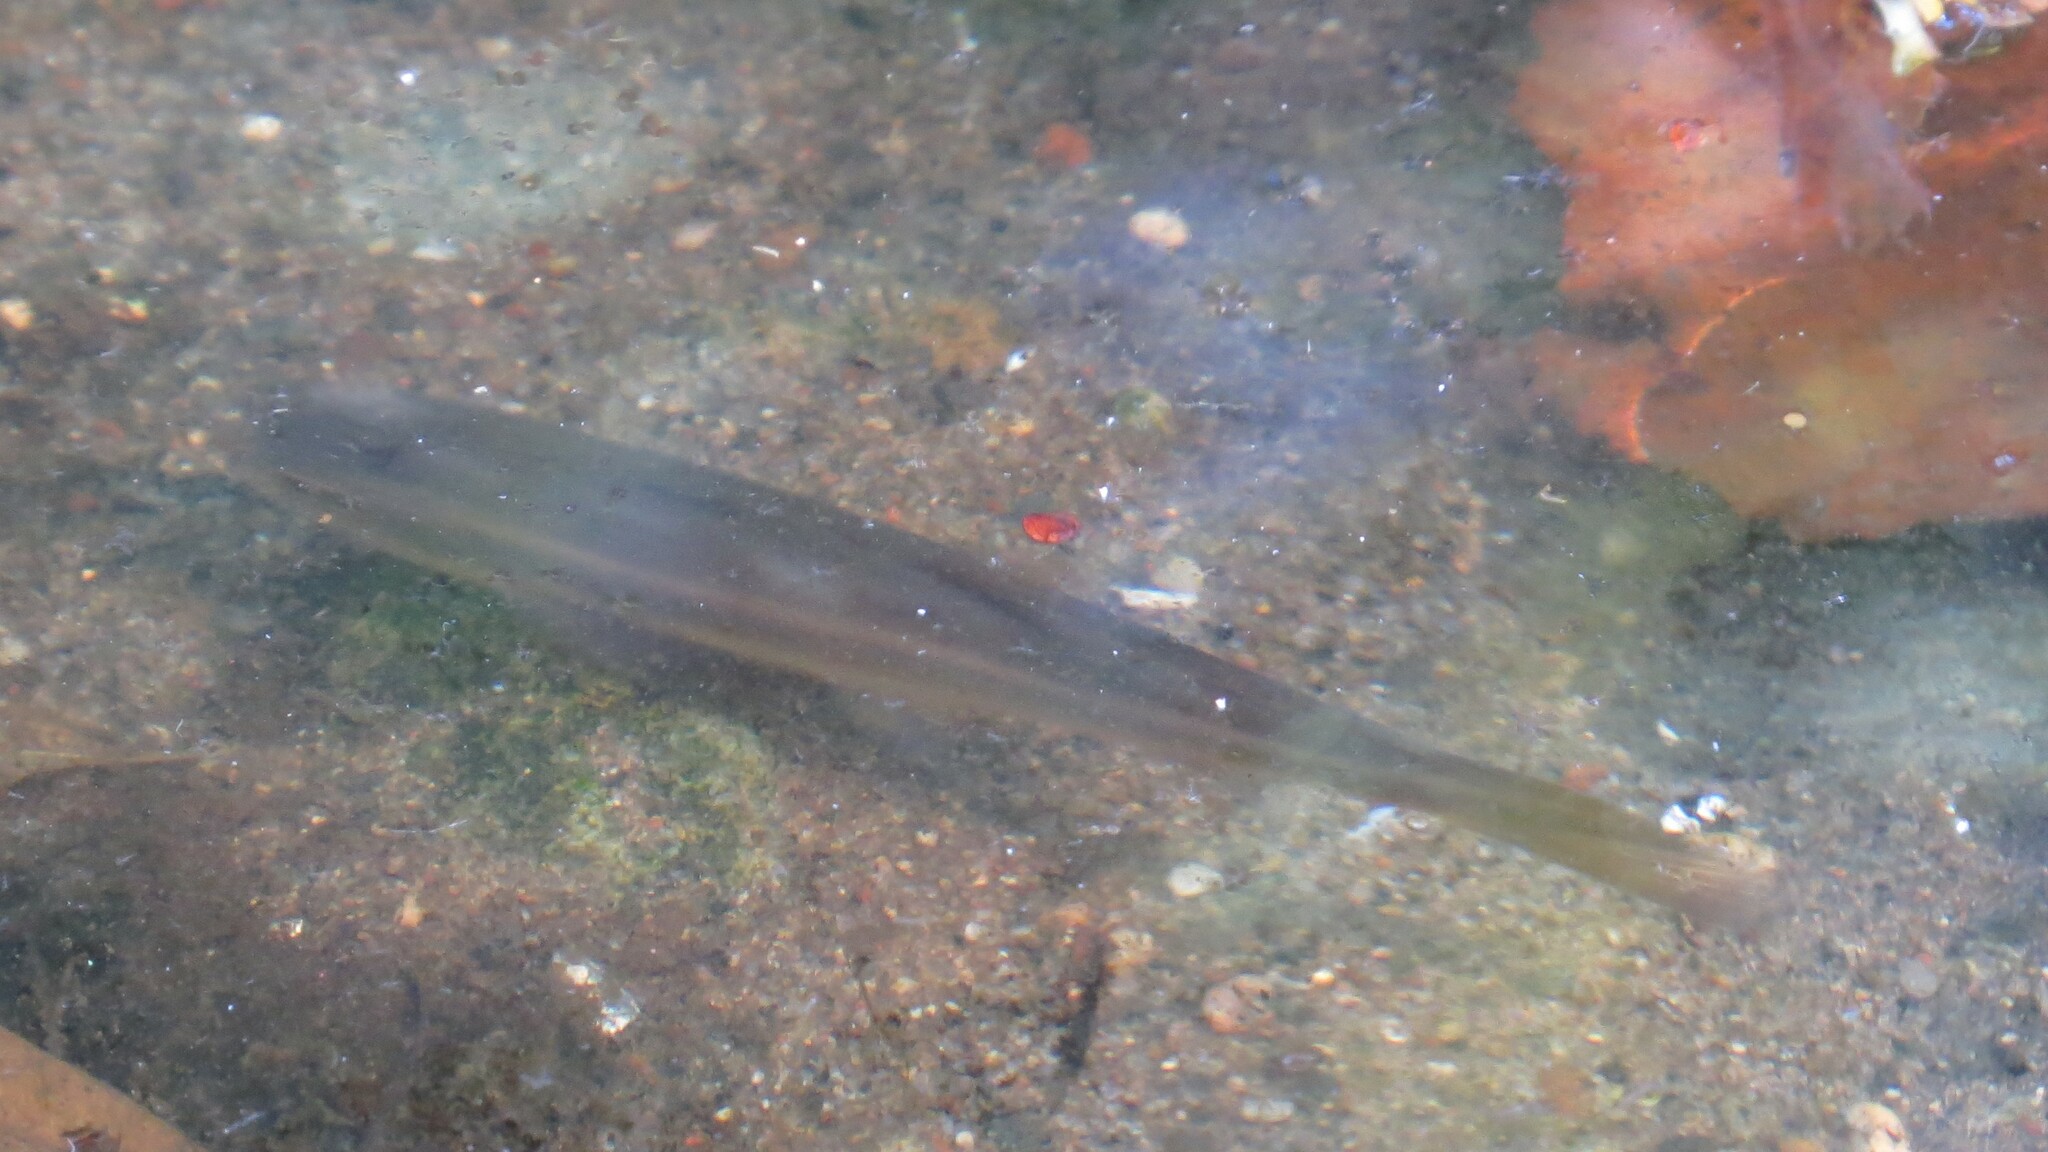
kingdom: Animalia
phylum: Chordata
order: Cypriniformes
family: Cyprinidae
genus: Semotilus
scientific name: Semotilus atromaculatus
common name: Creek chub
